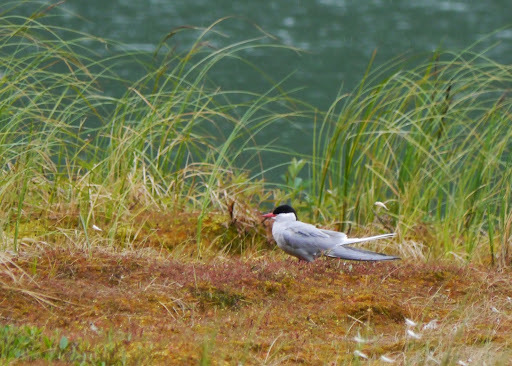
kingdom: Animalia
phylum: Chordata
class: Aves
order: Charadriiformes
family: Laridae
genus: Sterna
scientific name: Sterna paradisaea
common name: Arctic tern
